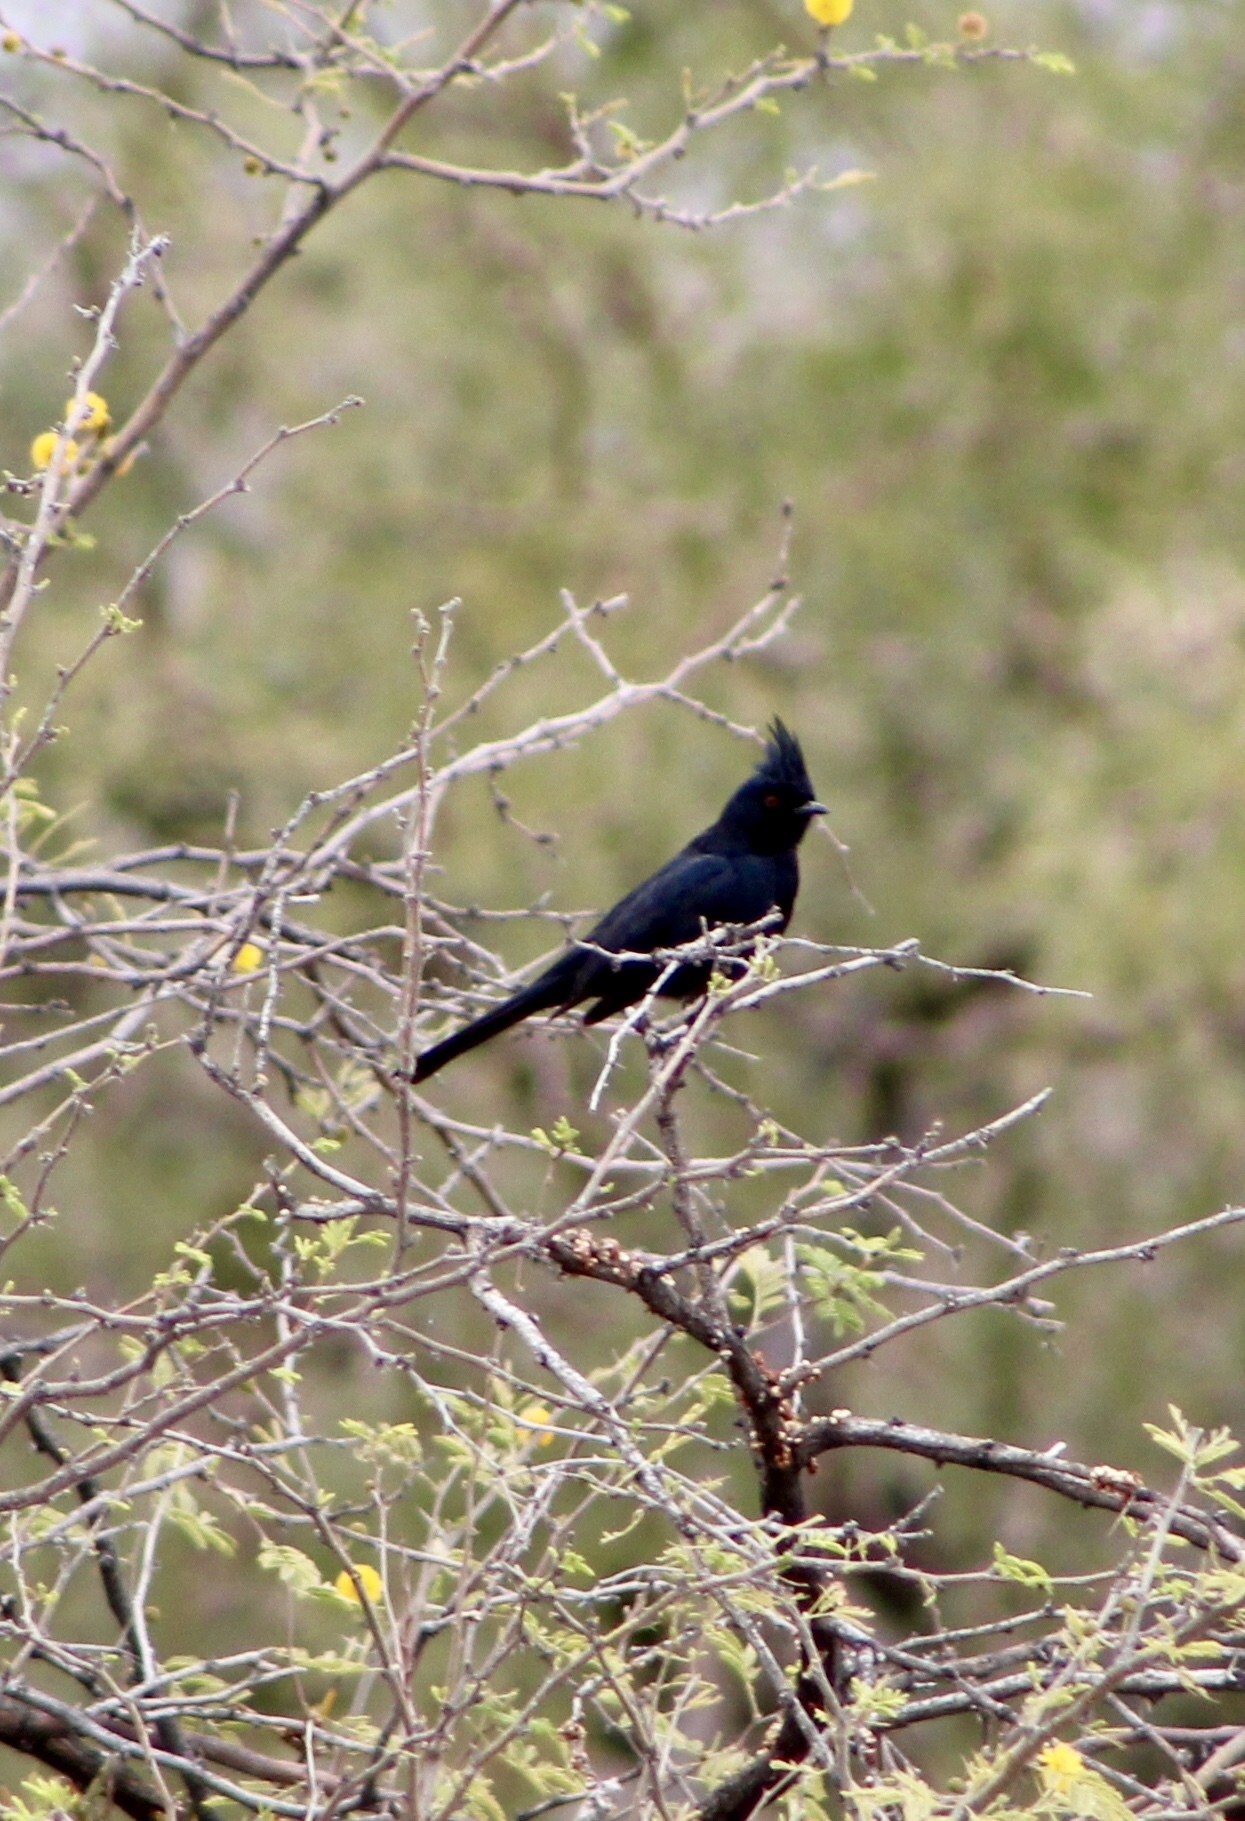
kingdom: Animalia
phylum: Chordata
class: Aves
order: Passeriformes
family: Ptilogonatidae
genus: Phainopepla
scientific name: Phainopepla nitens
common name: Phainopepla
